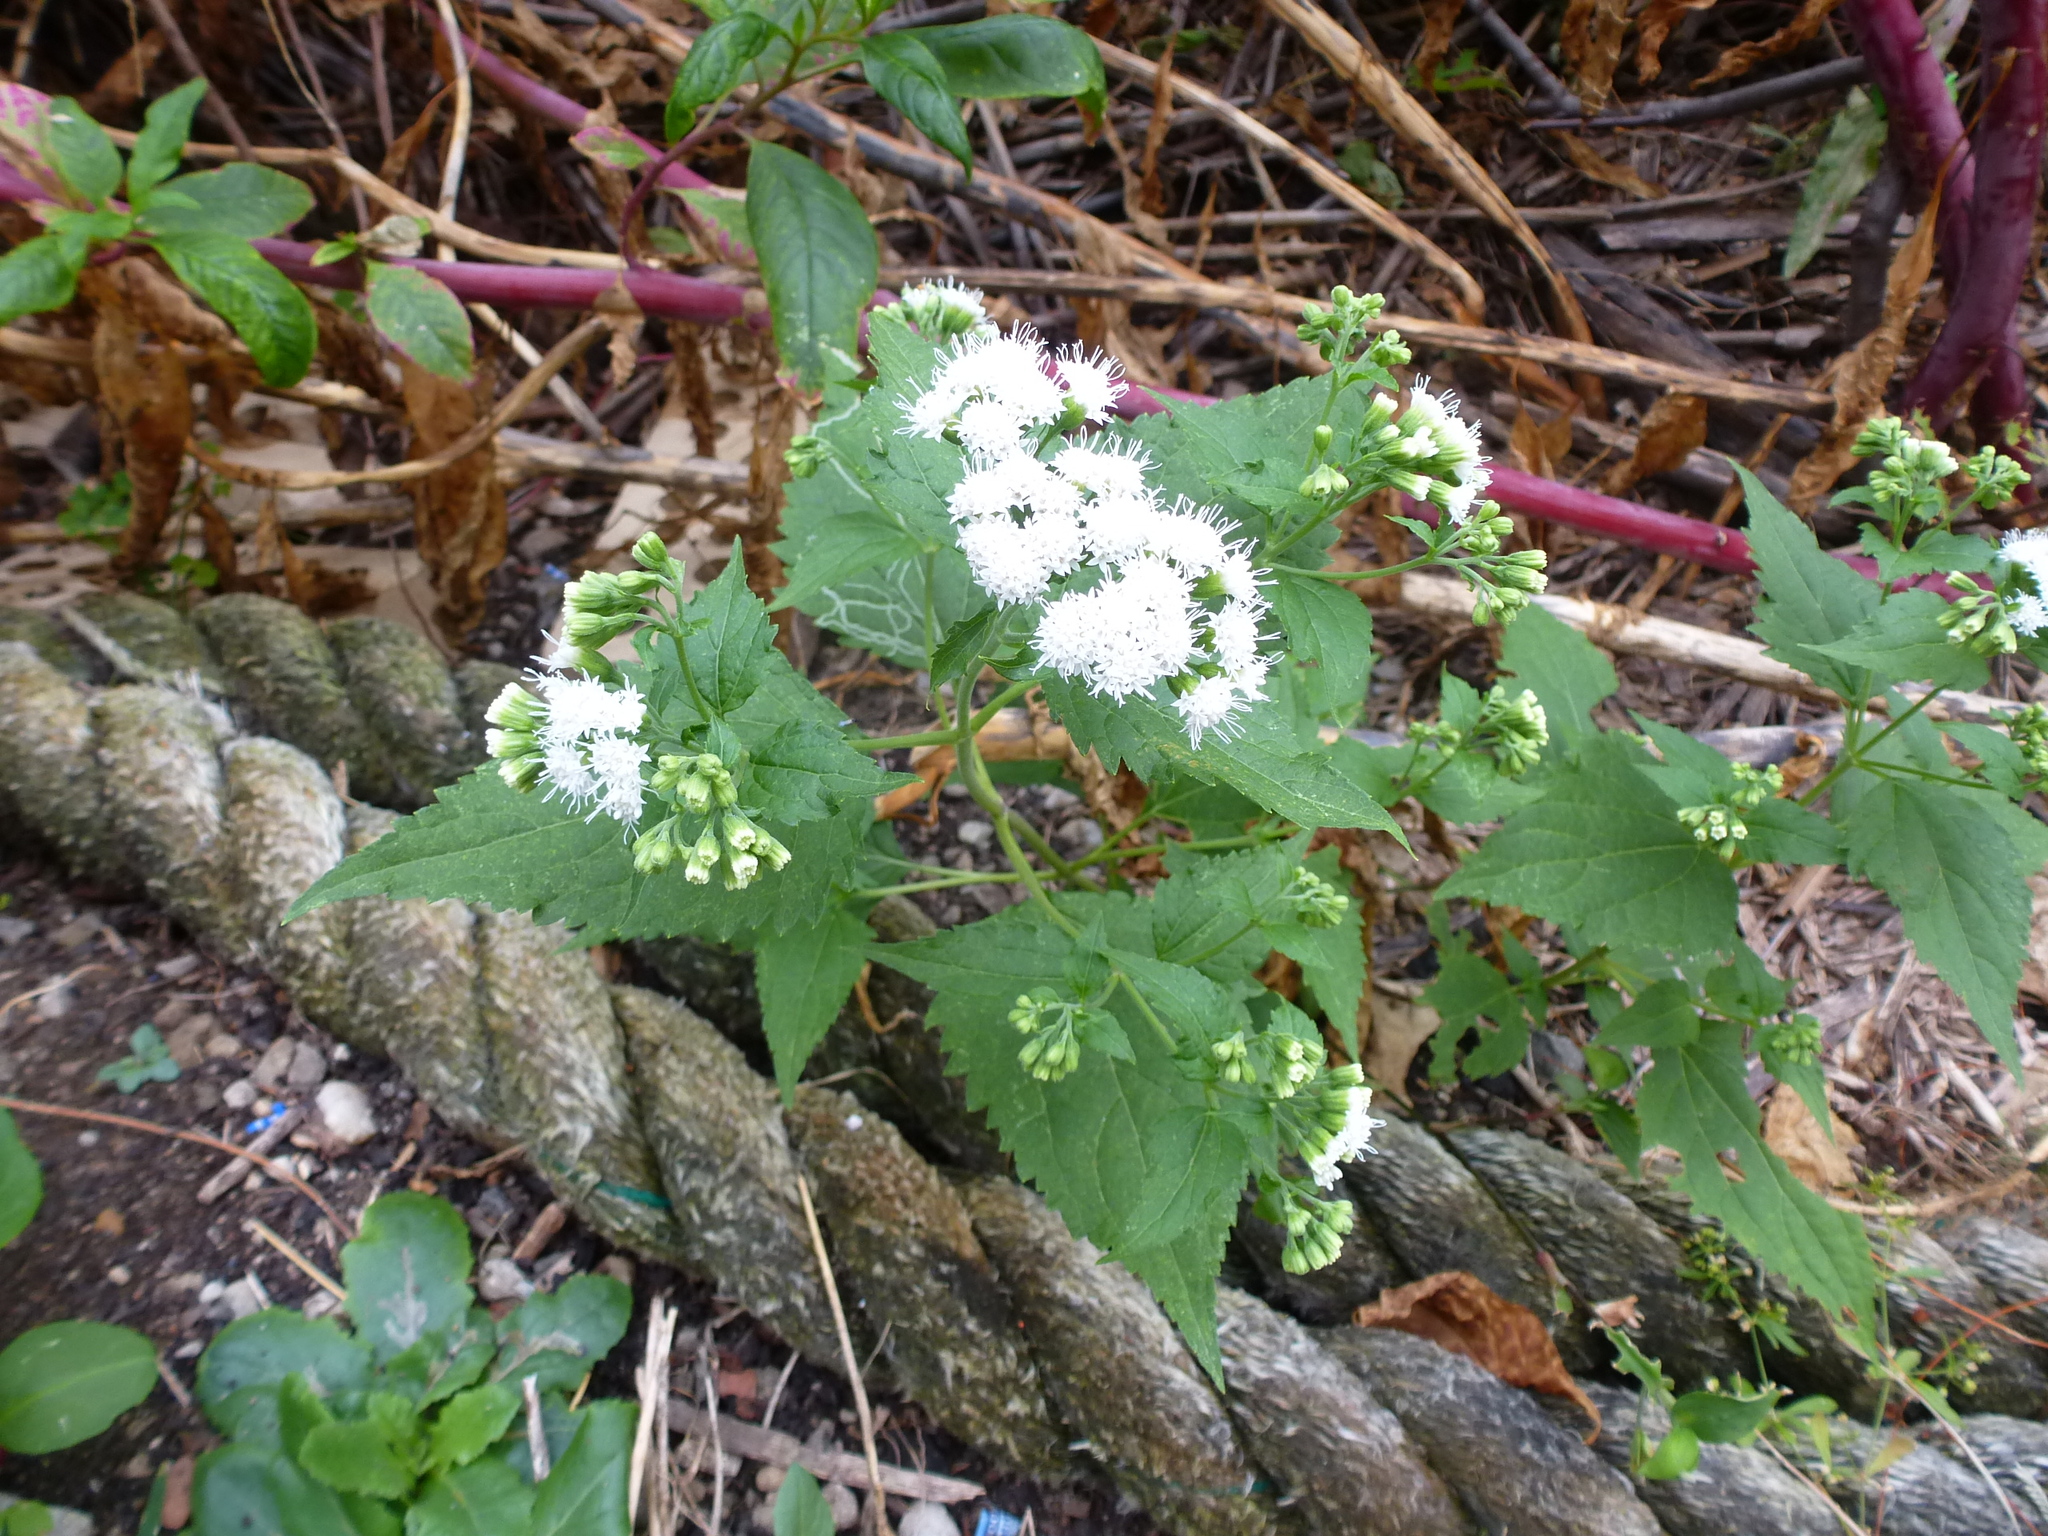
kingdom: Plantae
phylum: Tracheophyta
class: Magnoliopsida
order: Asterales
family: Asteraceae
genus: Ageratina
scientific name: Ageratina altissima
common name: White snakeroot
